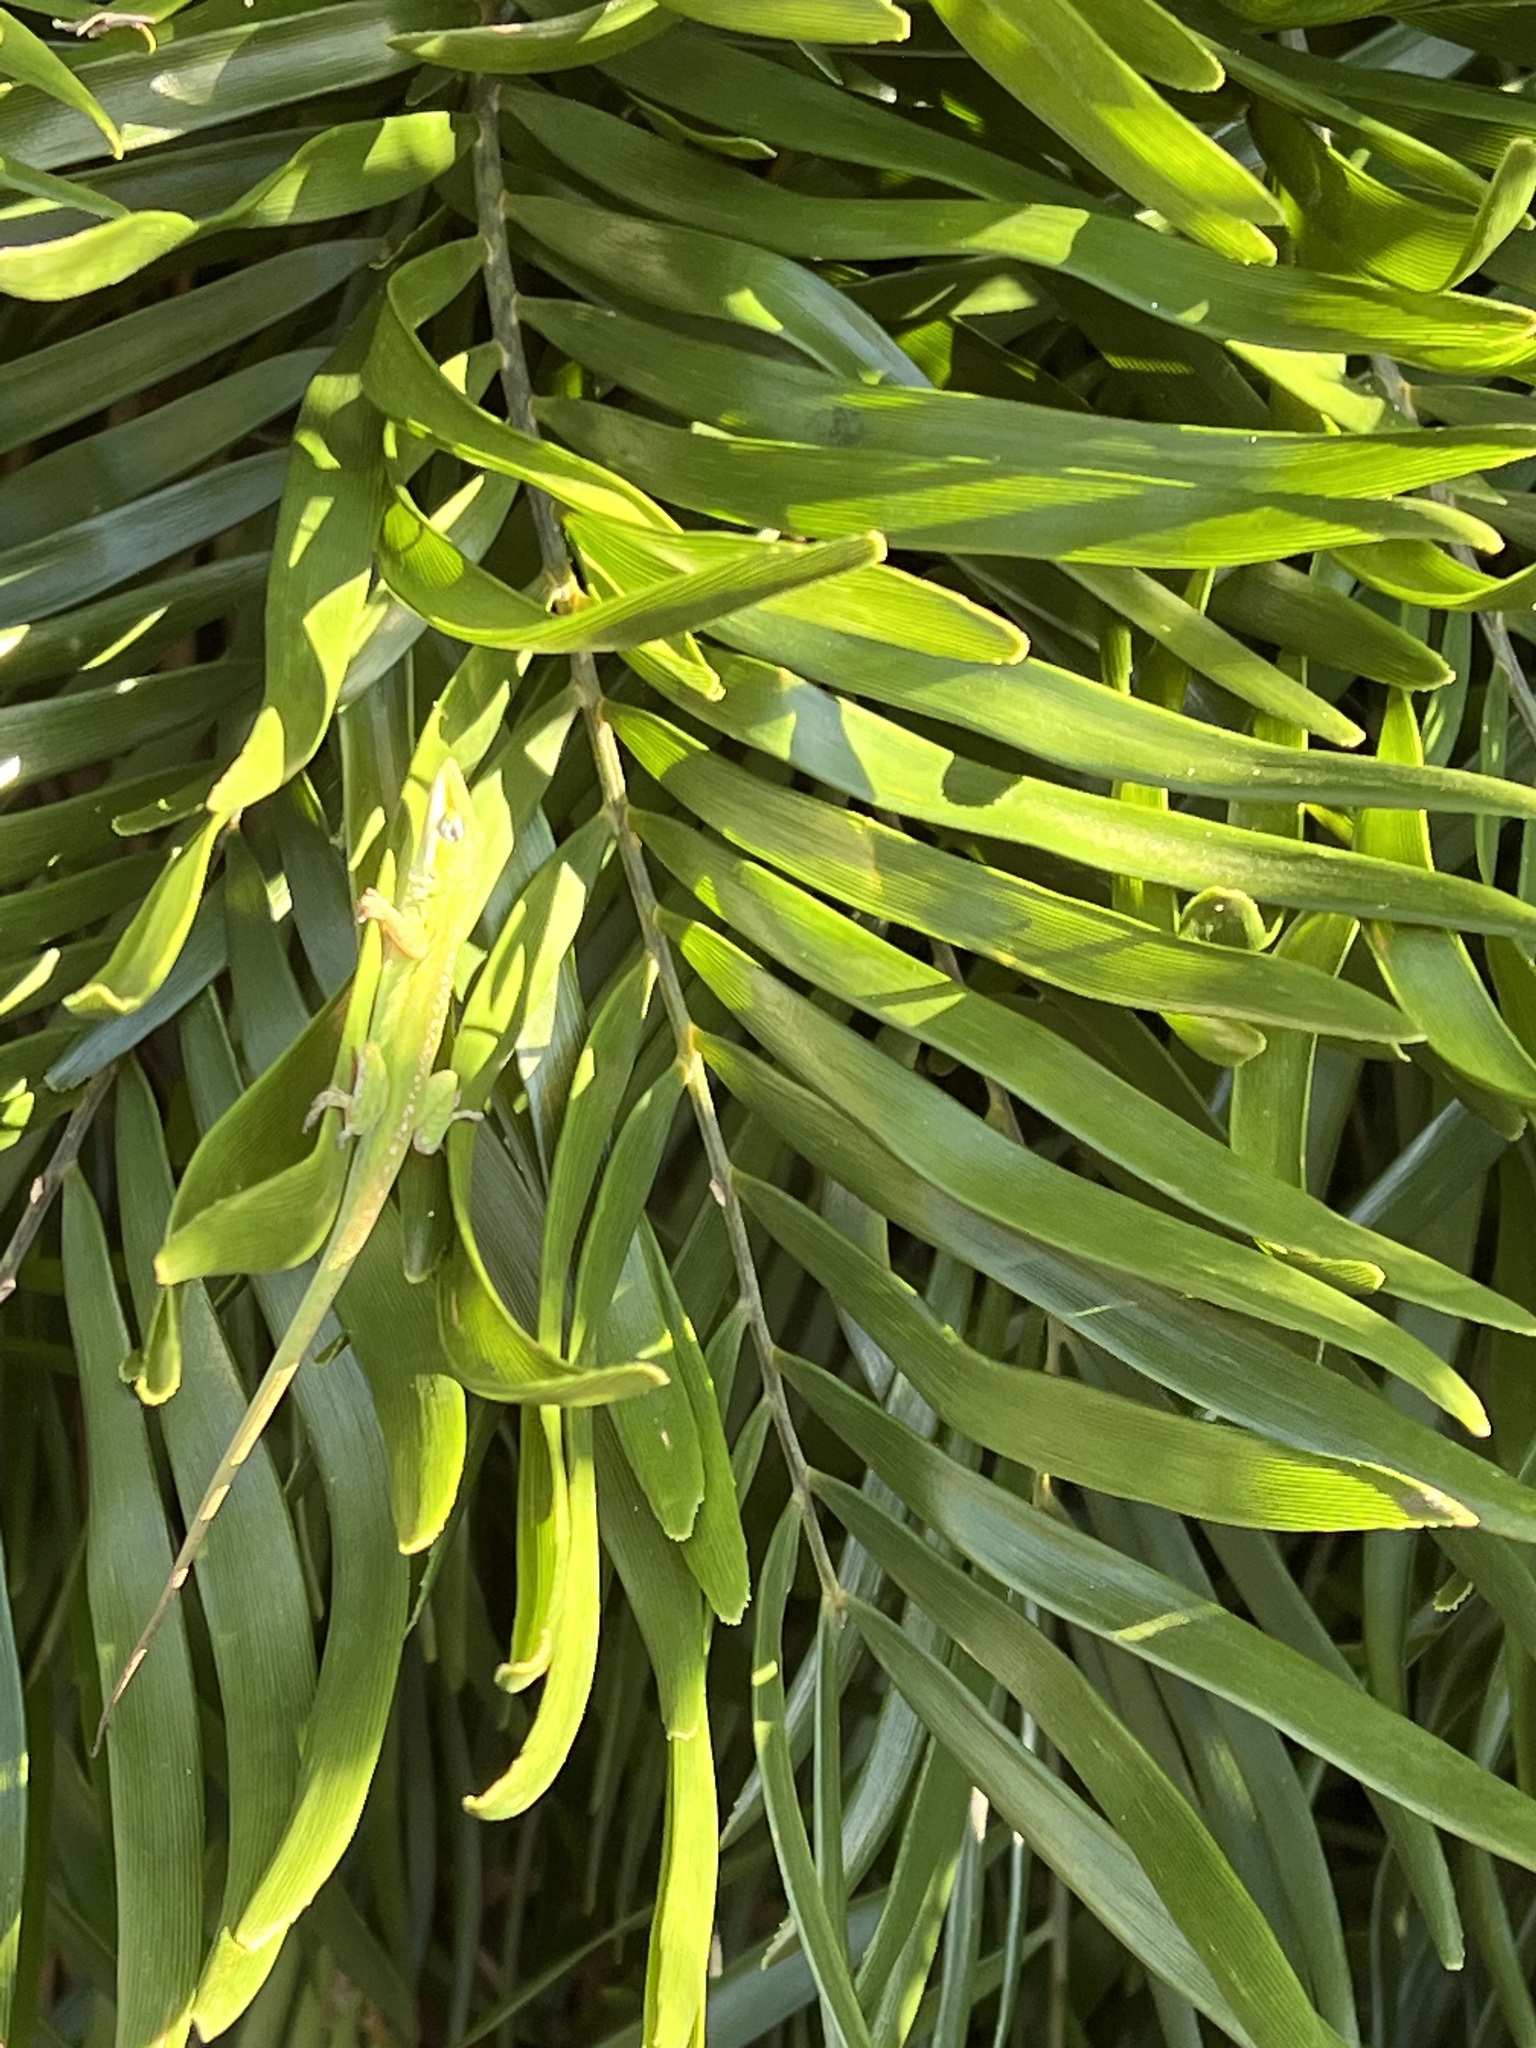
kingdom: Animalia
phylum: Chordata
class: Squamata
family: Dactyloidae
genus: Anolis
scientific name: Anolis carolinensis
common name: Green anole
